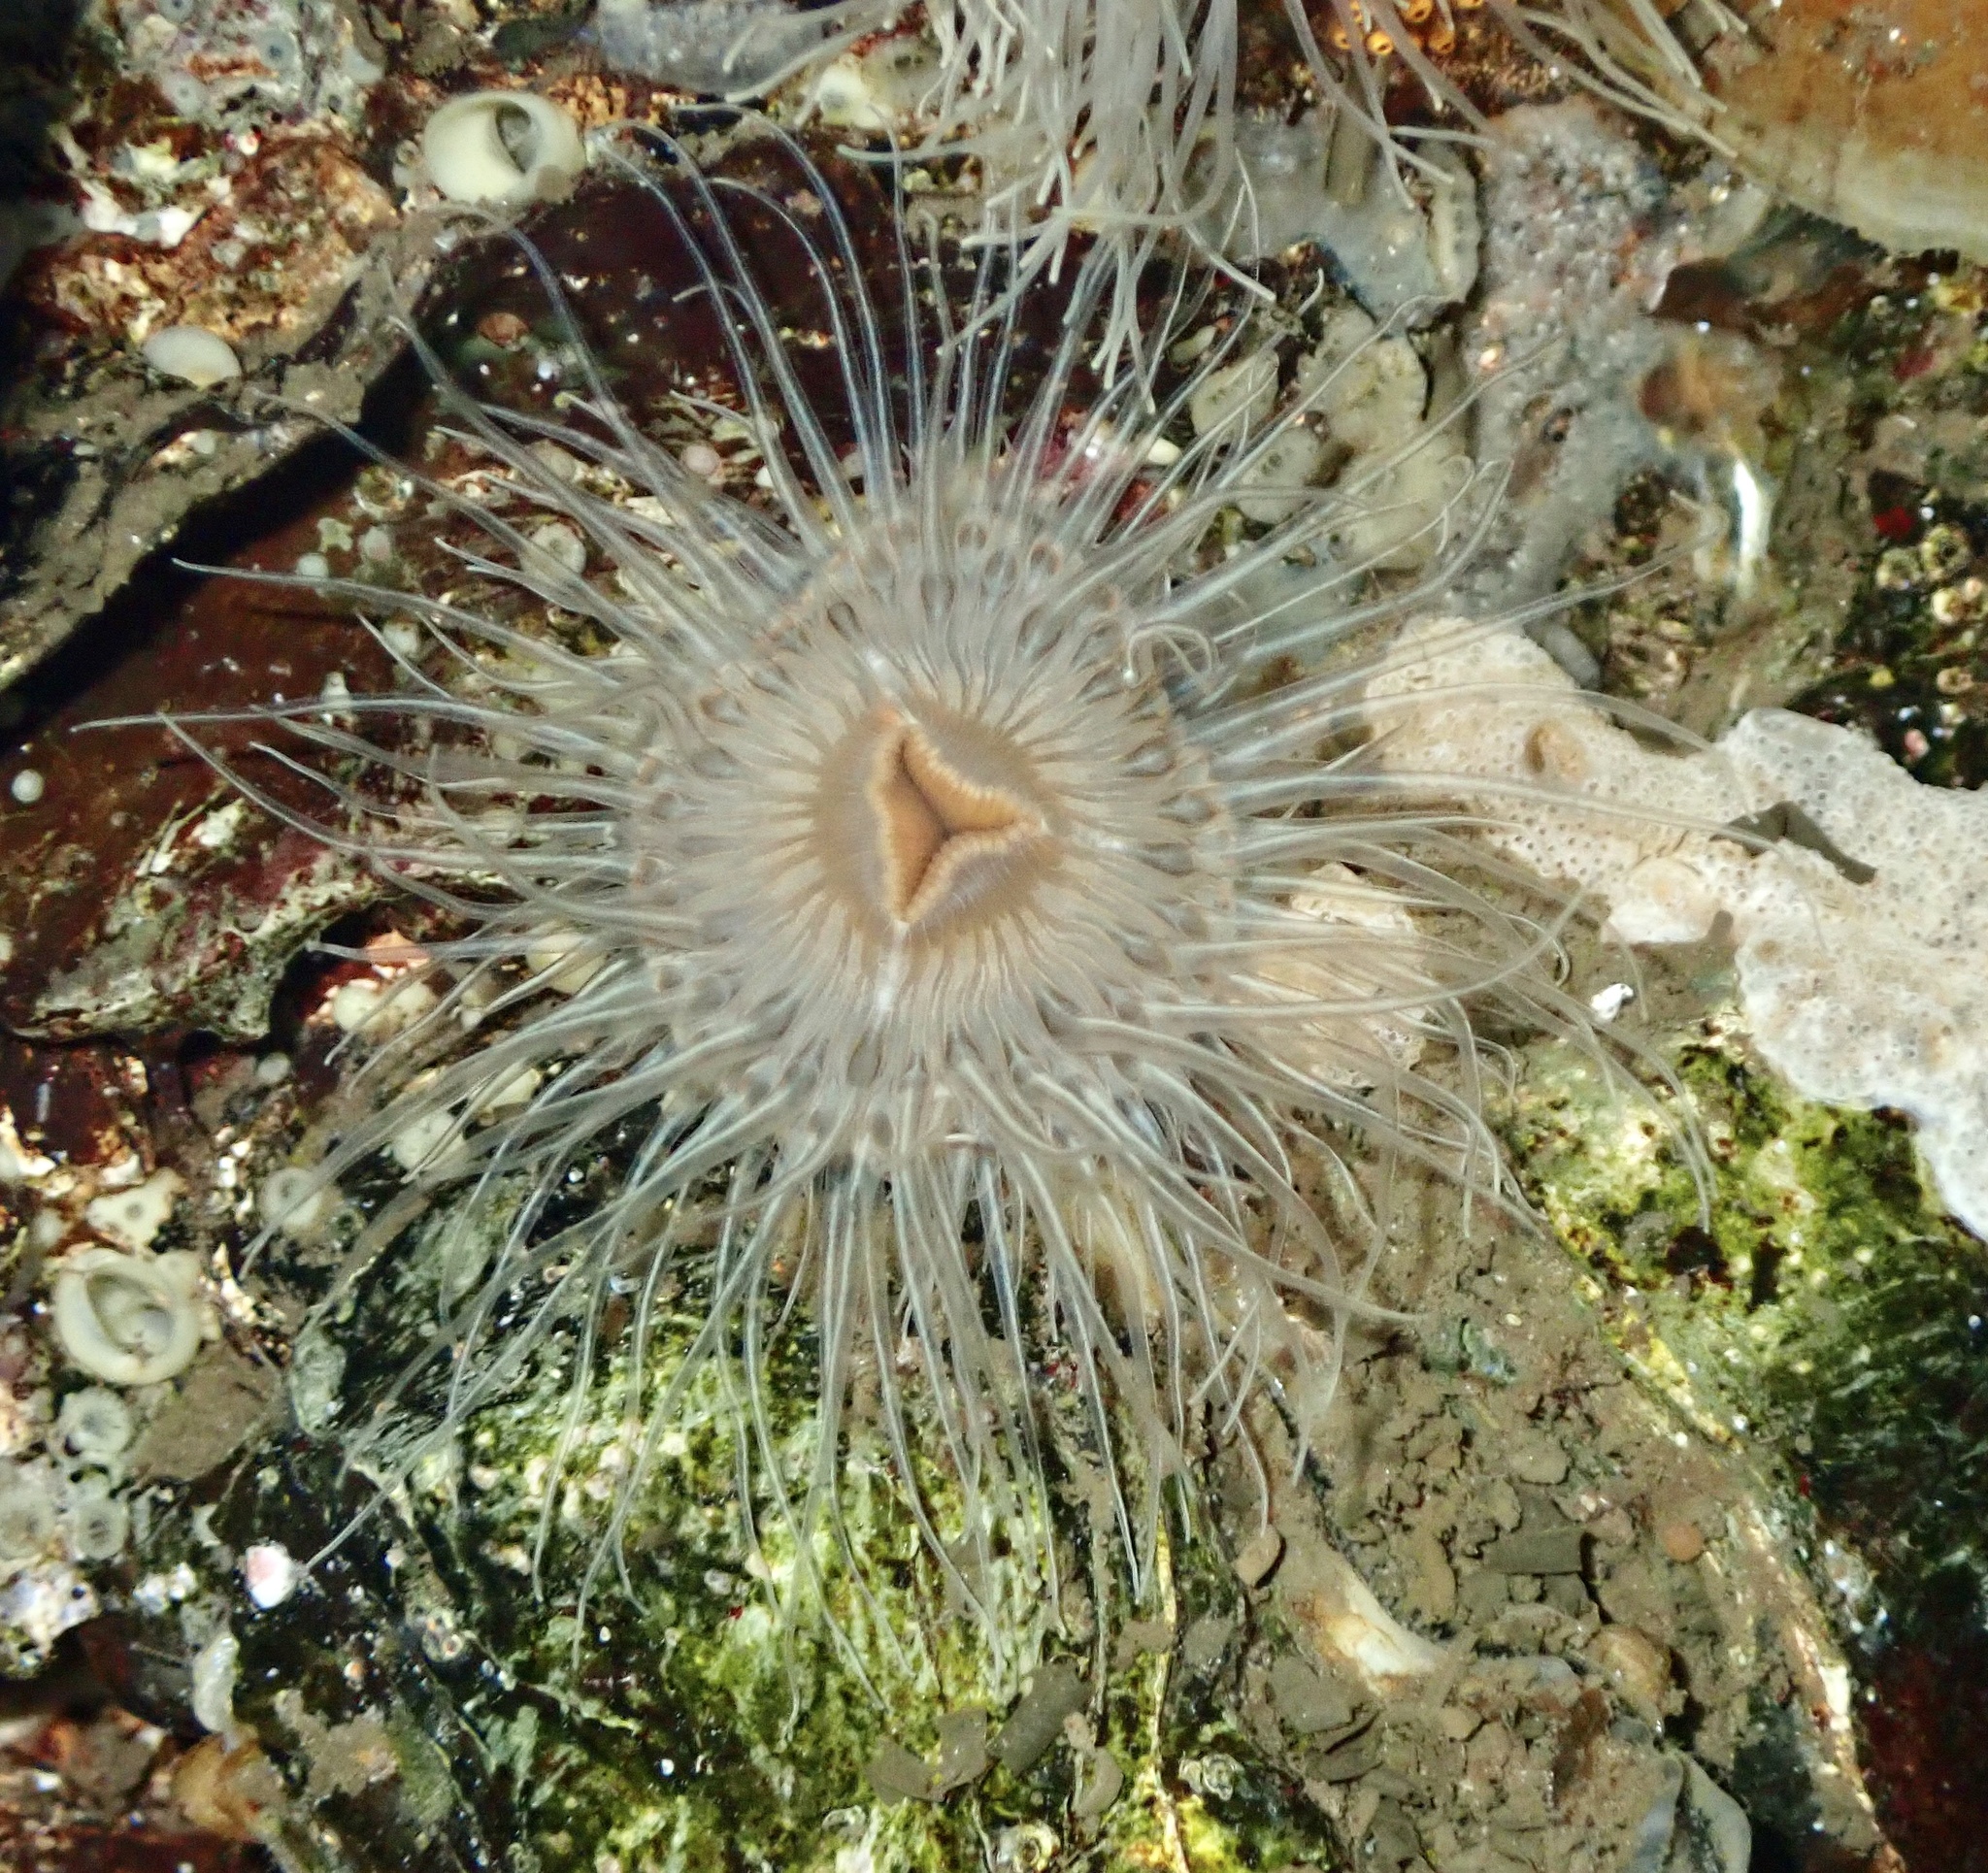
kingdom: Animalia
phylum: Cnidaria
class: Anthozoa
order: Actiniaria
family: Sagartiidae
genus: Sagartia
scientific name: Sagartia undata
